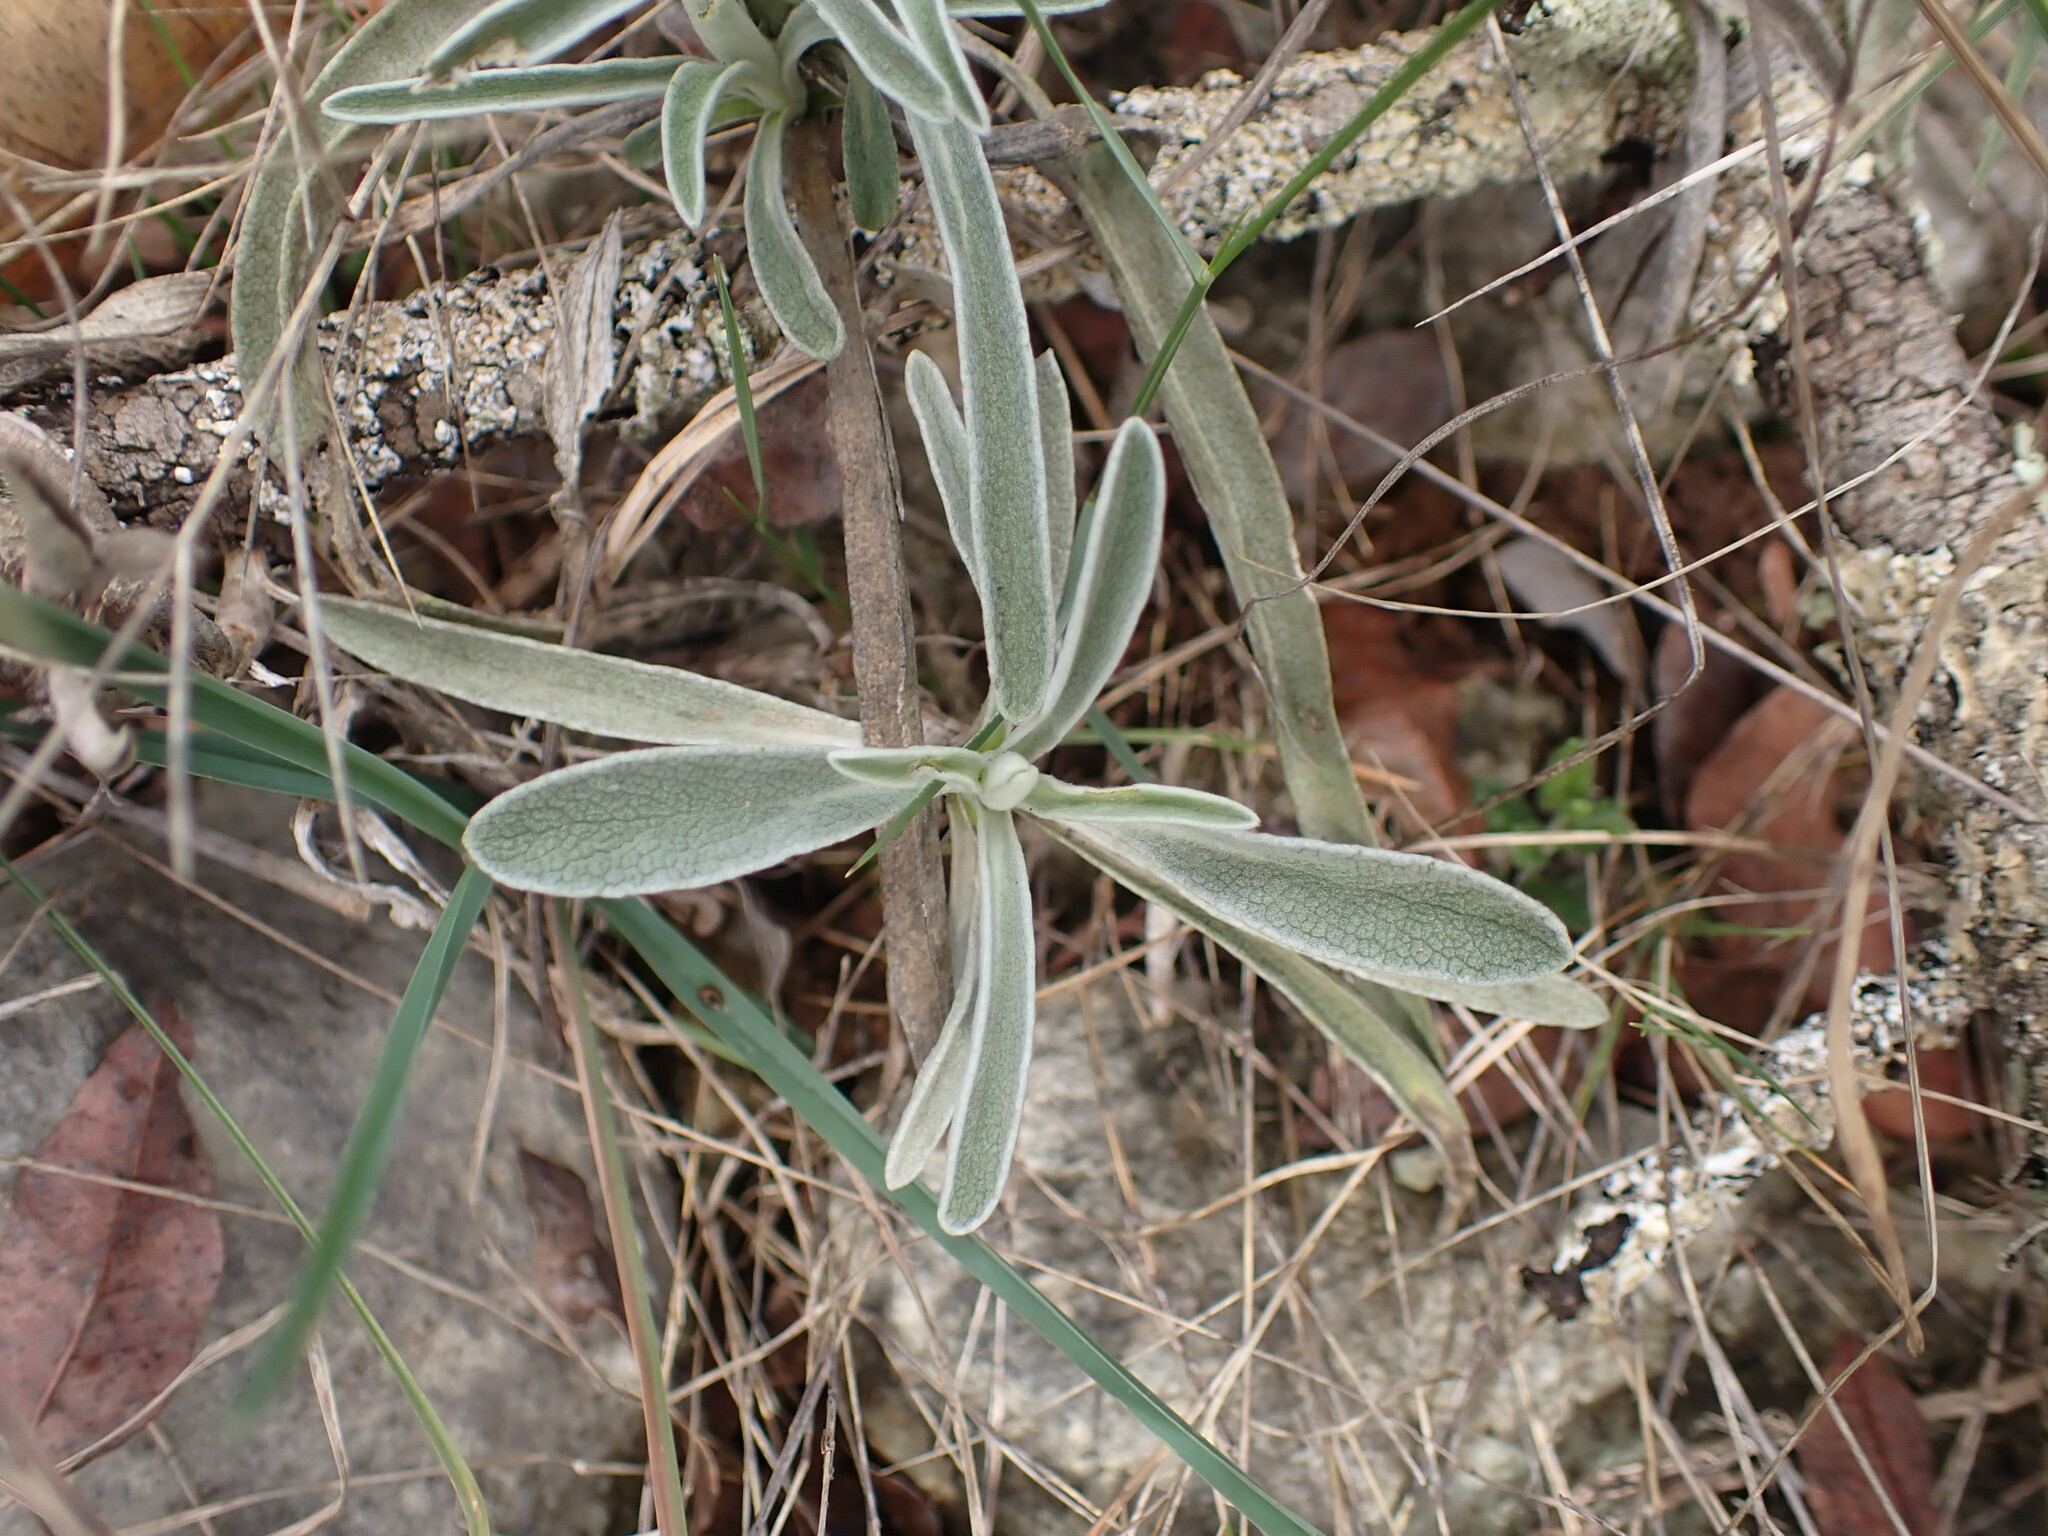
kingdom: Plantae
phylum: Tracheophyta
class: Magnoliopsida
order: Lamiales
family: Lamiaceae
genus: Phlomis
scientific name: Phlomis lychnitis
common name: Lampwickplant
